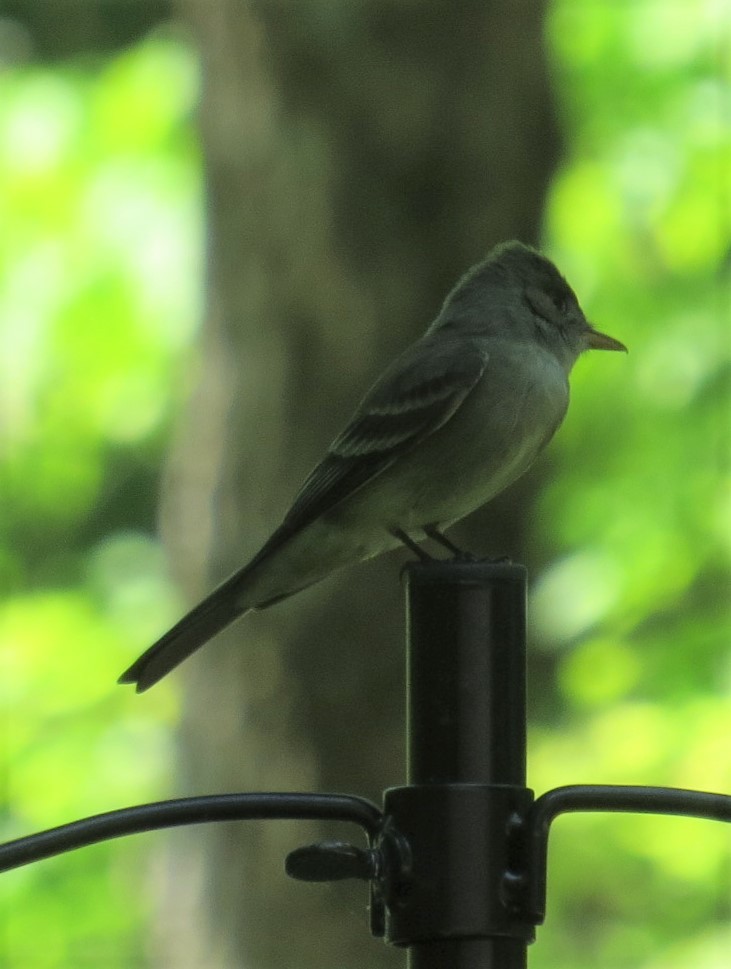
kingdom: Animalia
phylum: Chordata
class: Aves
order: Passeriformes
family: Tyrannidae
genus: Contopus
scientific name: Contopus virens
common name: Eastern wood-pewee
